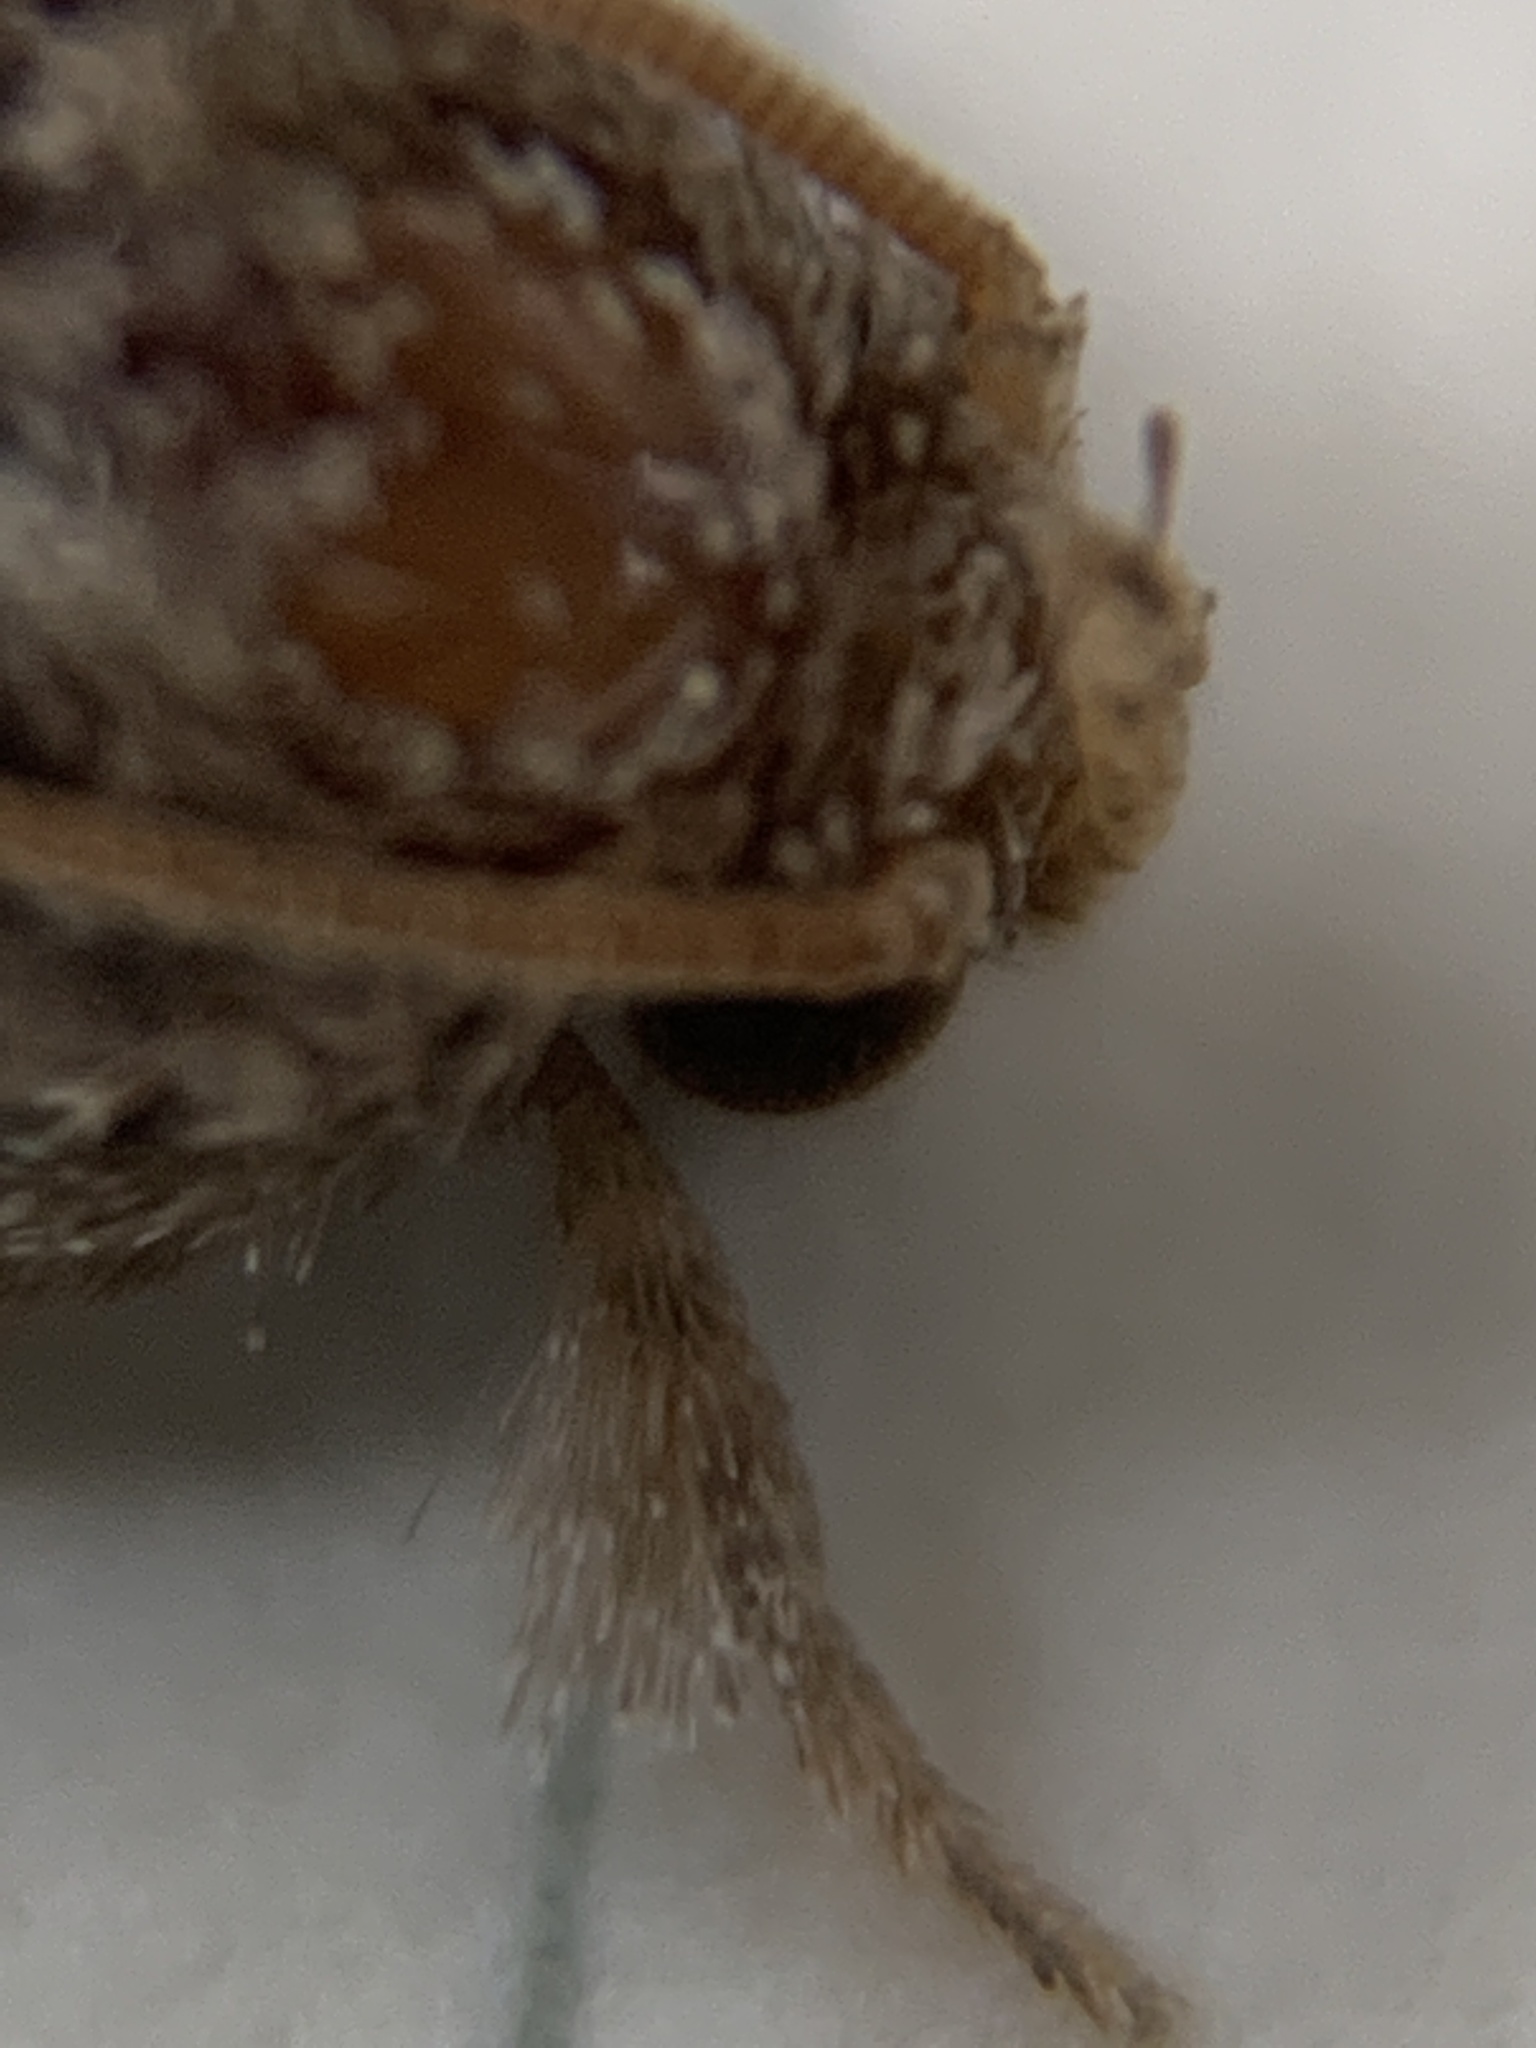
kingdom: Animalia
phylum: Arthropoda
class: Insecta
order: Lepidoptera
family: Tineidae
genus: Acrolophus
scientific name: Acrolophus piger
